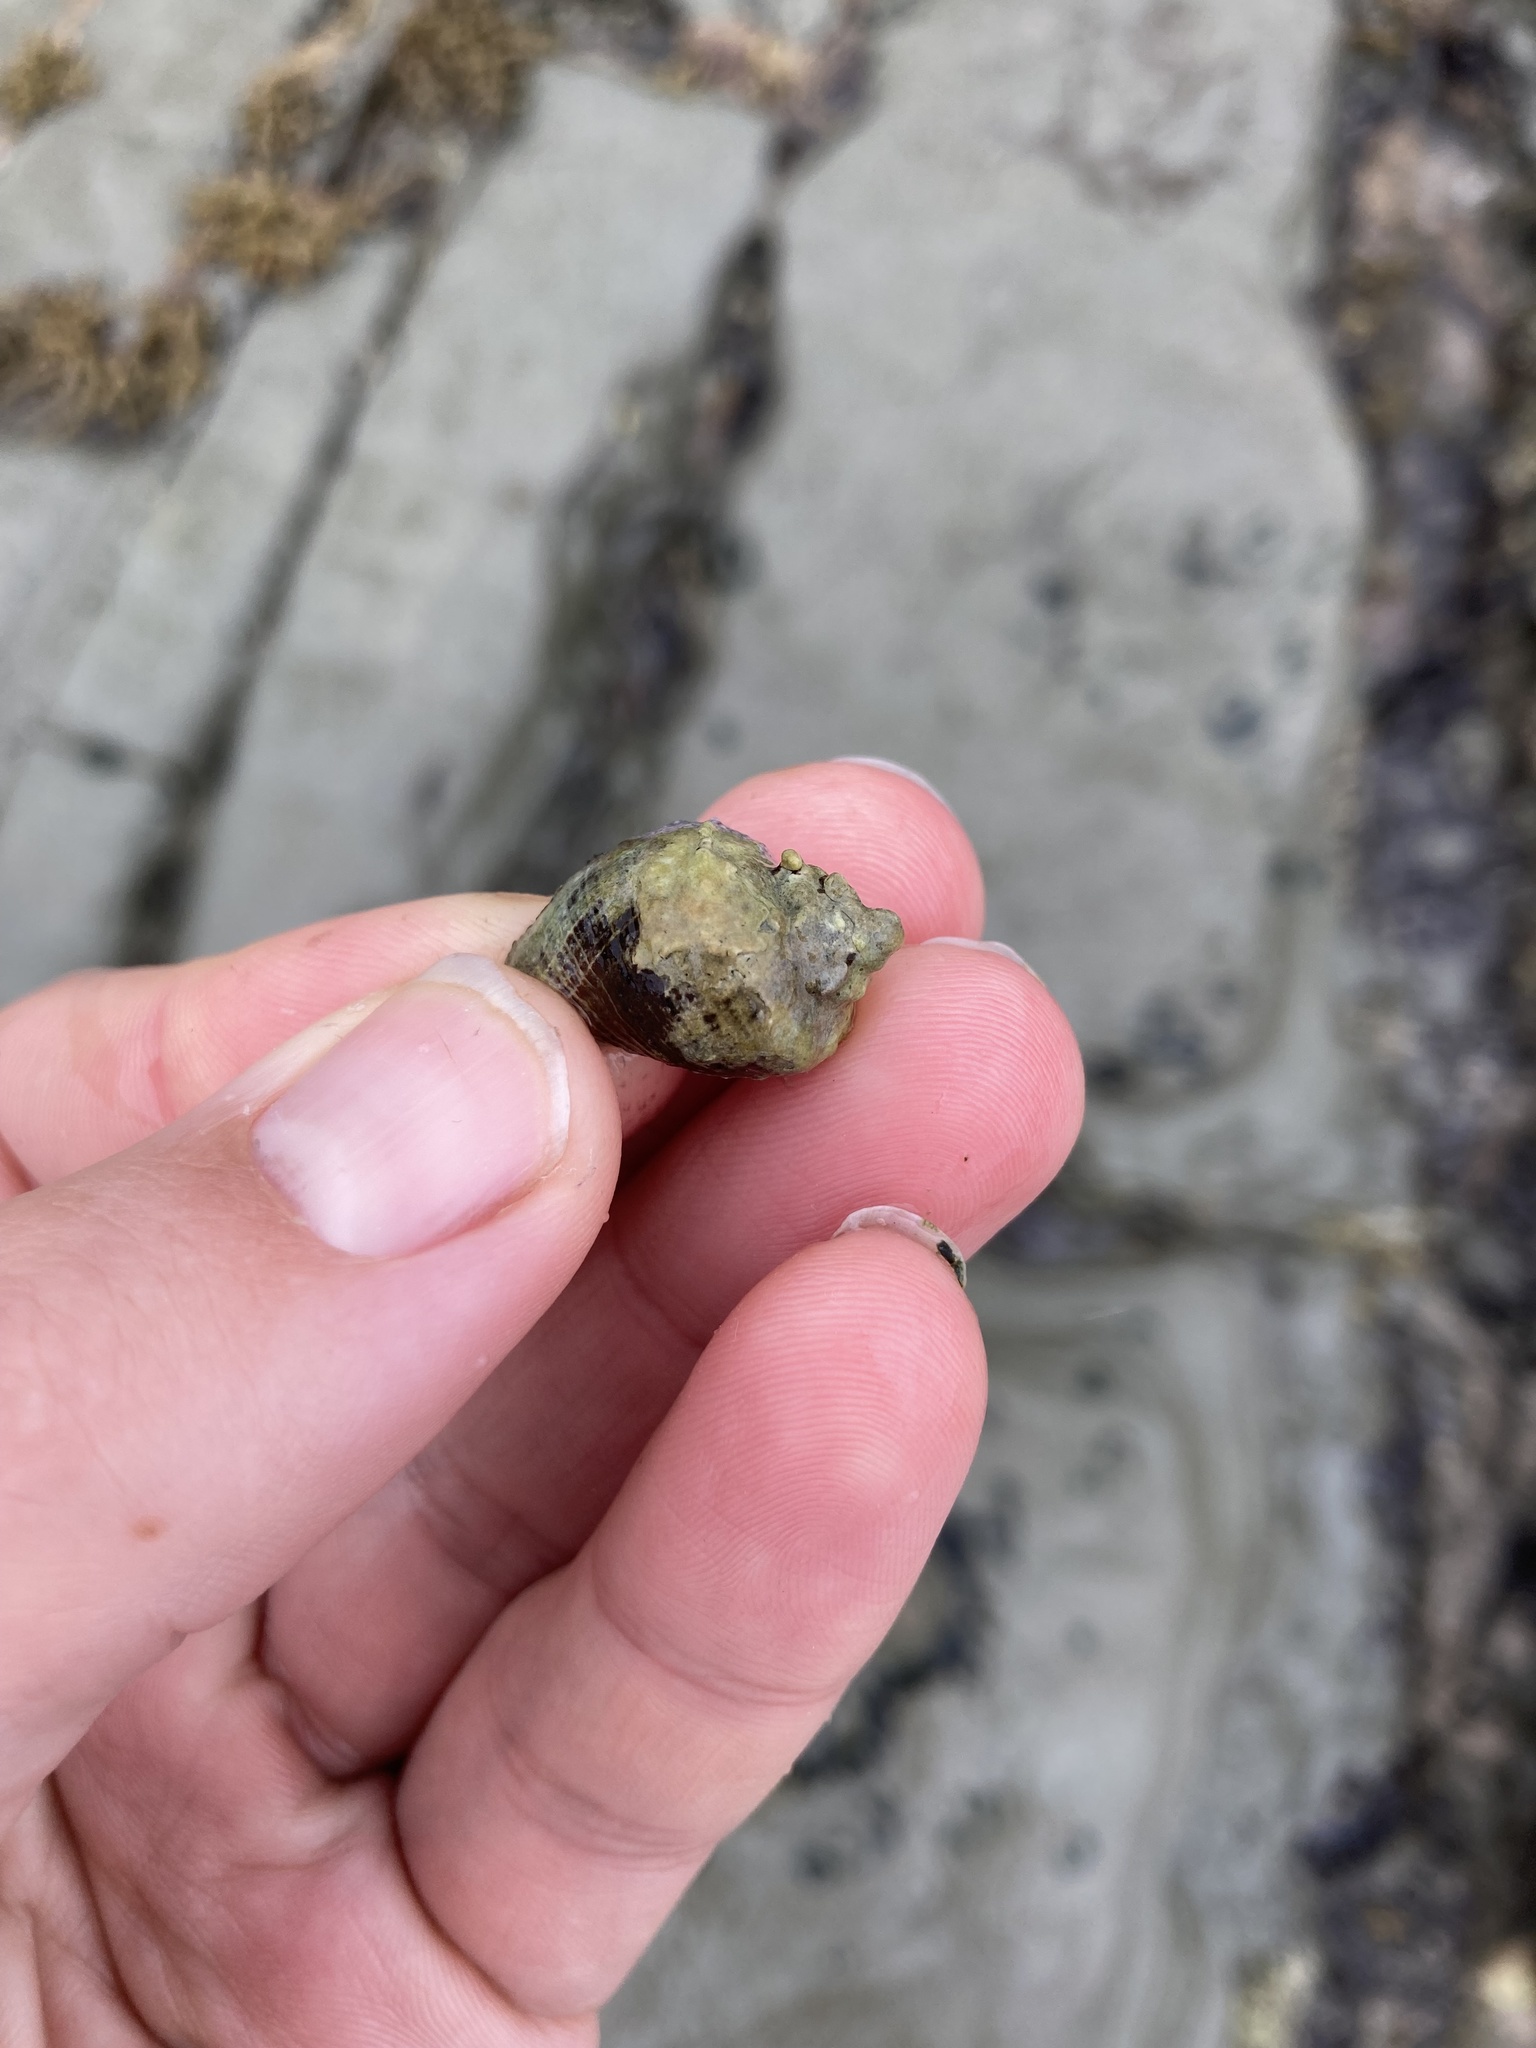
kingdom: Animalia
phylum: Mollusca
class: Gastropoda
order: Neogastropoda
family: Muricidae
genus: Haustrum
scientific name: Haustrum haustorium
